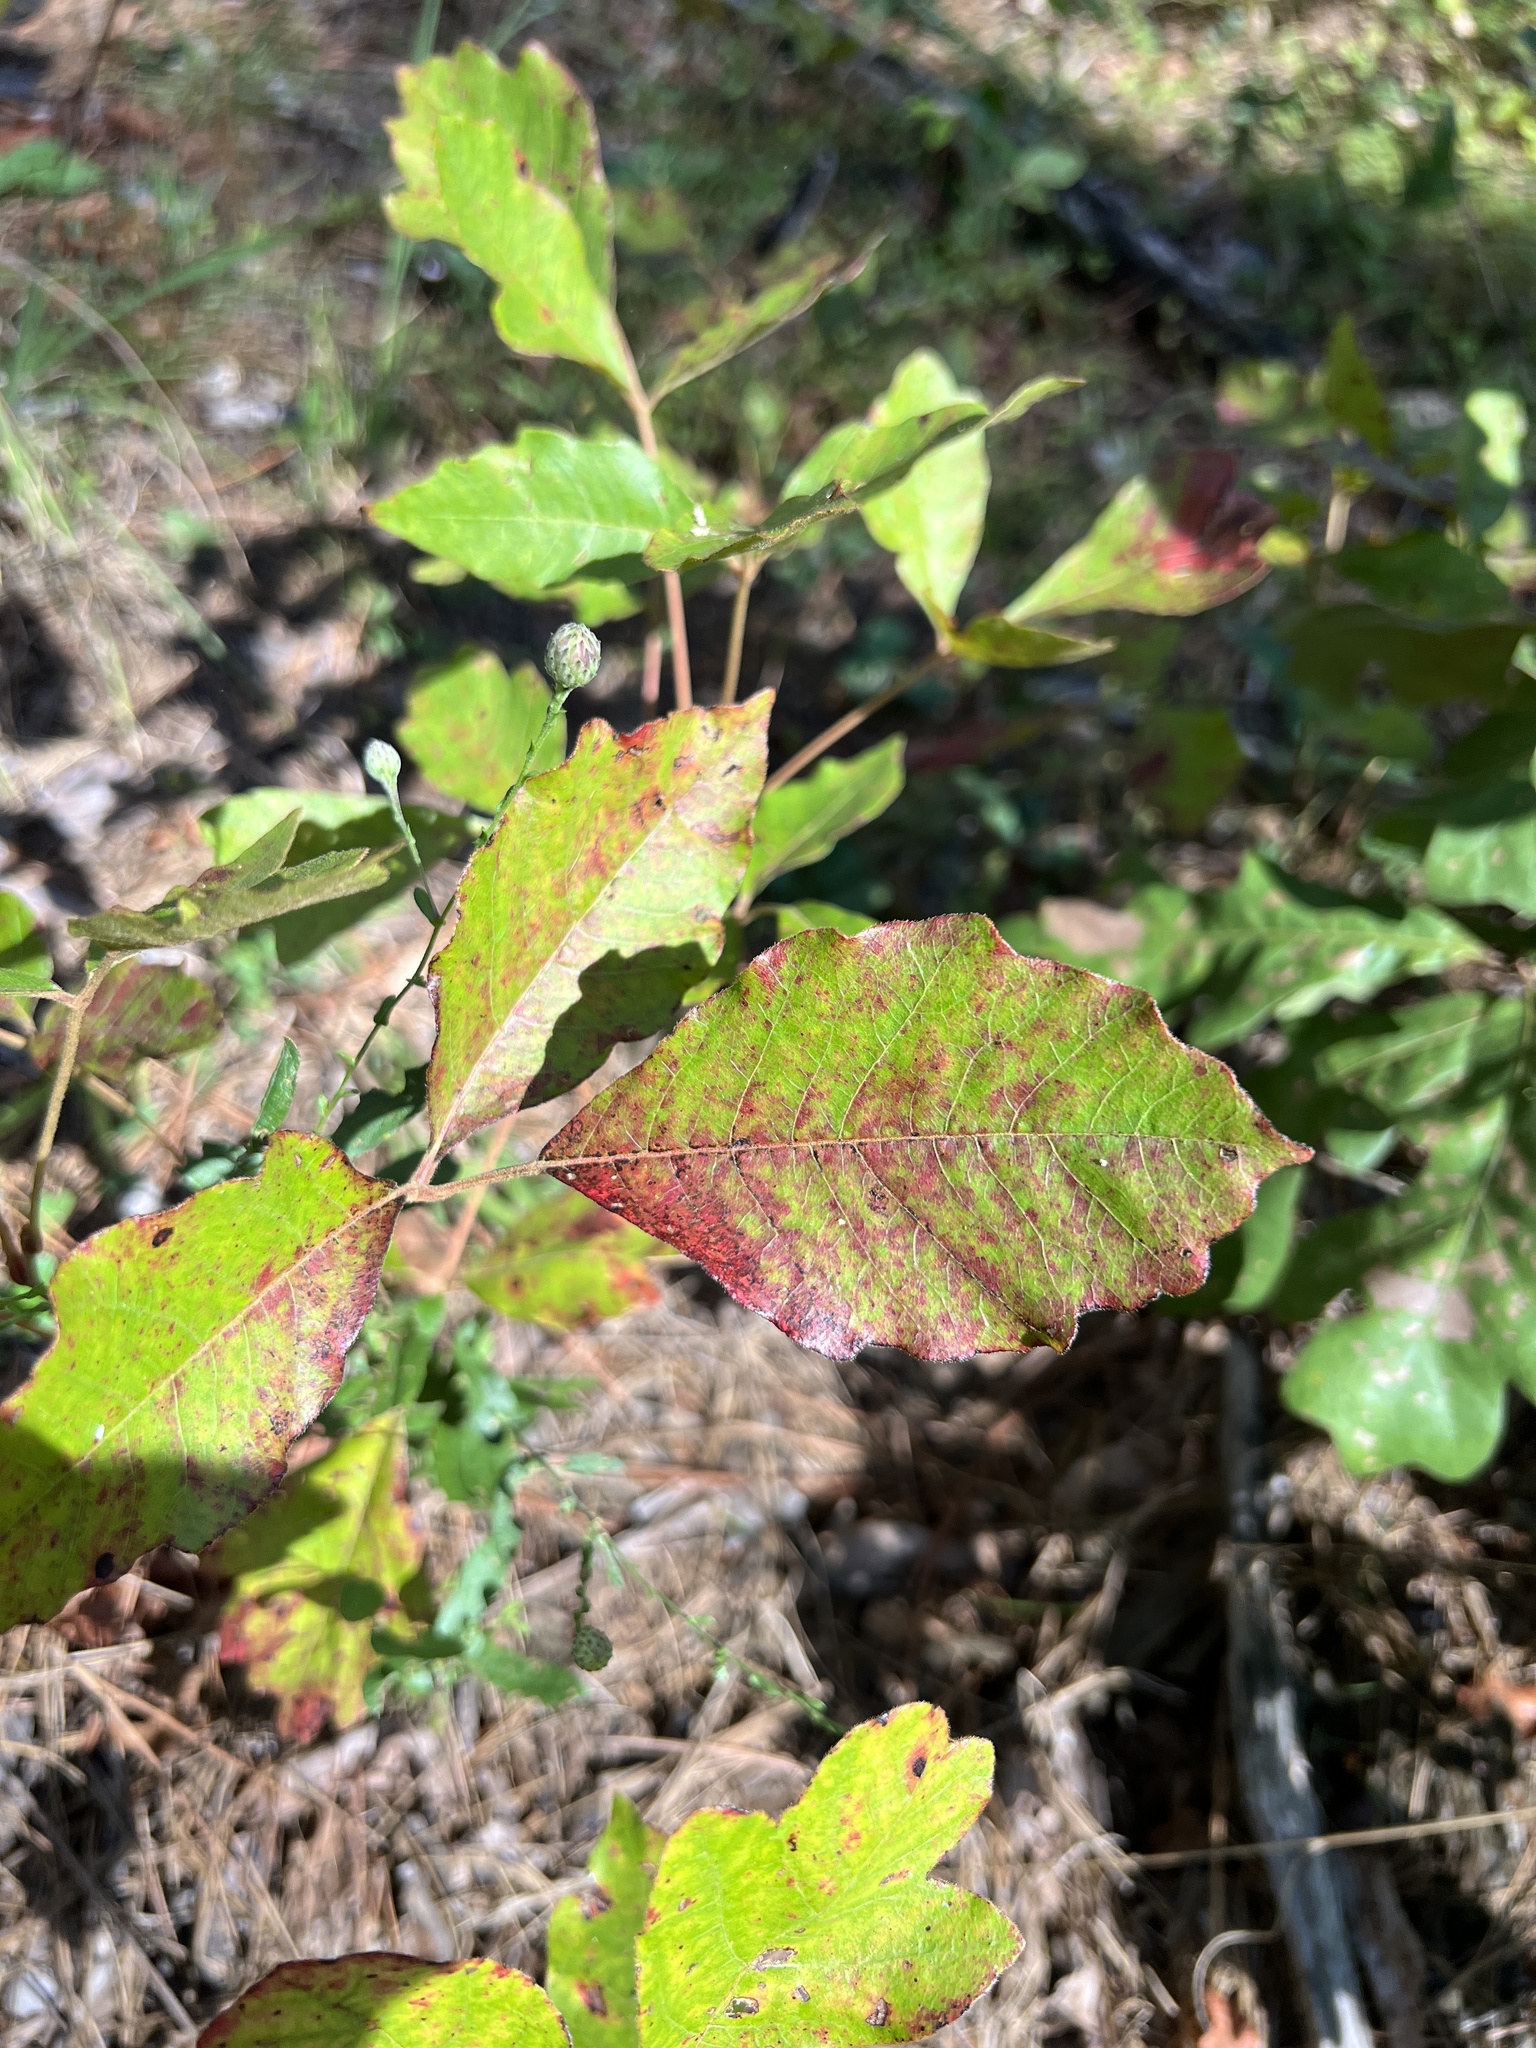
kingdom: Plantae
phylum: Tracheophyta
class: Magnoliopsida
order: Sapindales
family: Anacardiaceae
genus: Toxicodendron
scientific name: Toxicodendron pubescens
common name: Eastern poison-oak
